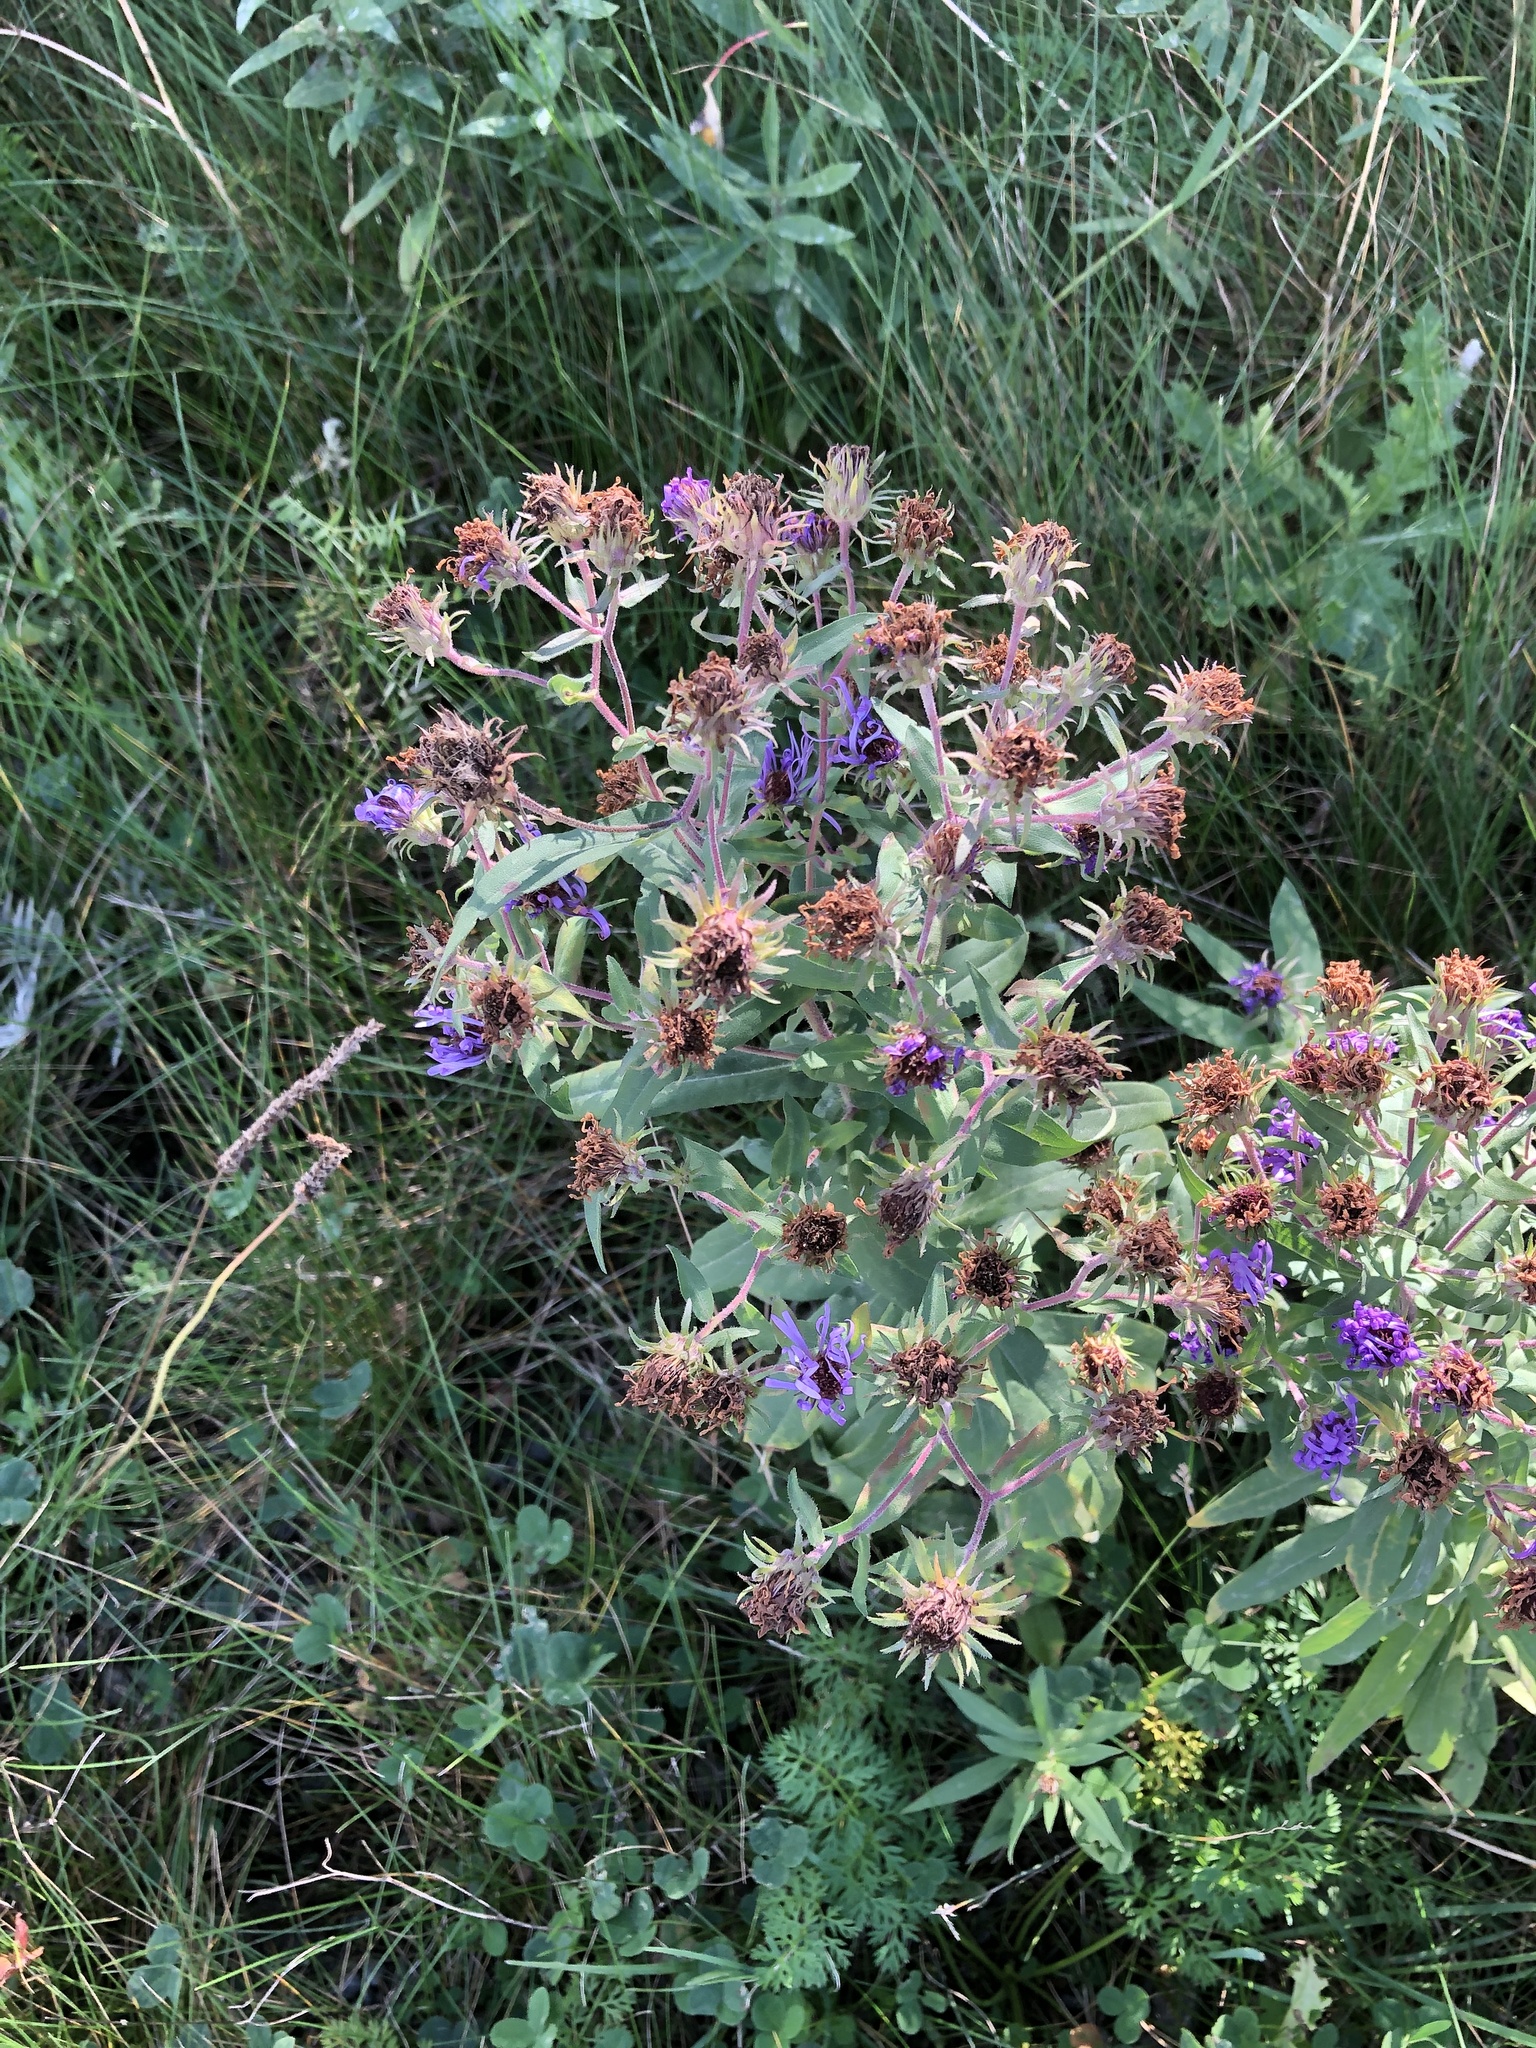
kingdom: Plantae
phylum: Tracheophyta
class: Magnoliopsida
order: Asterales
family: Asteraceae
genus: Symphyotrichum
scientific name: Symphyotrichum novae-angliae
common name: Michaelmas daisy
